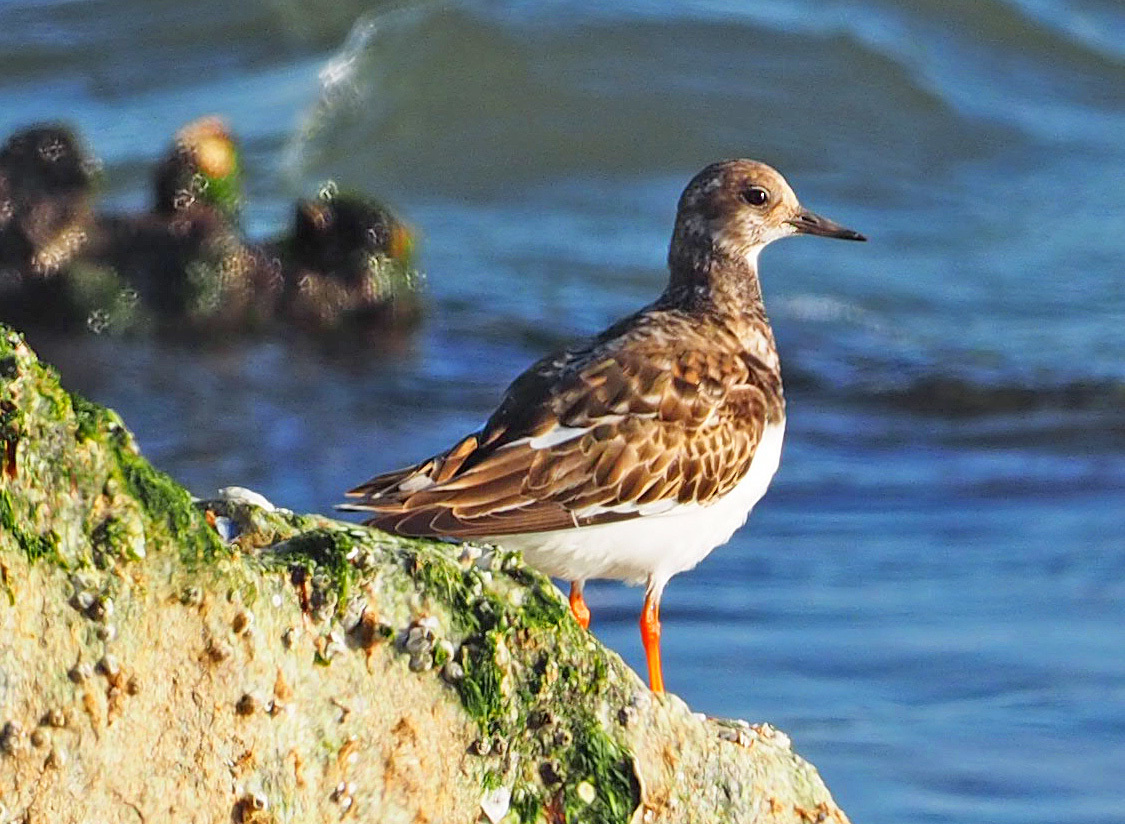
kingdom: Animalia
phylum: Chordata
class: Aves
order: Charadriiformes
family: Scolopacidae
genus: Arenaria
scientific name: Arenaria interpres
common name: Ruddy turnstone
